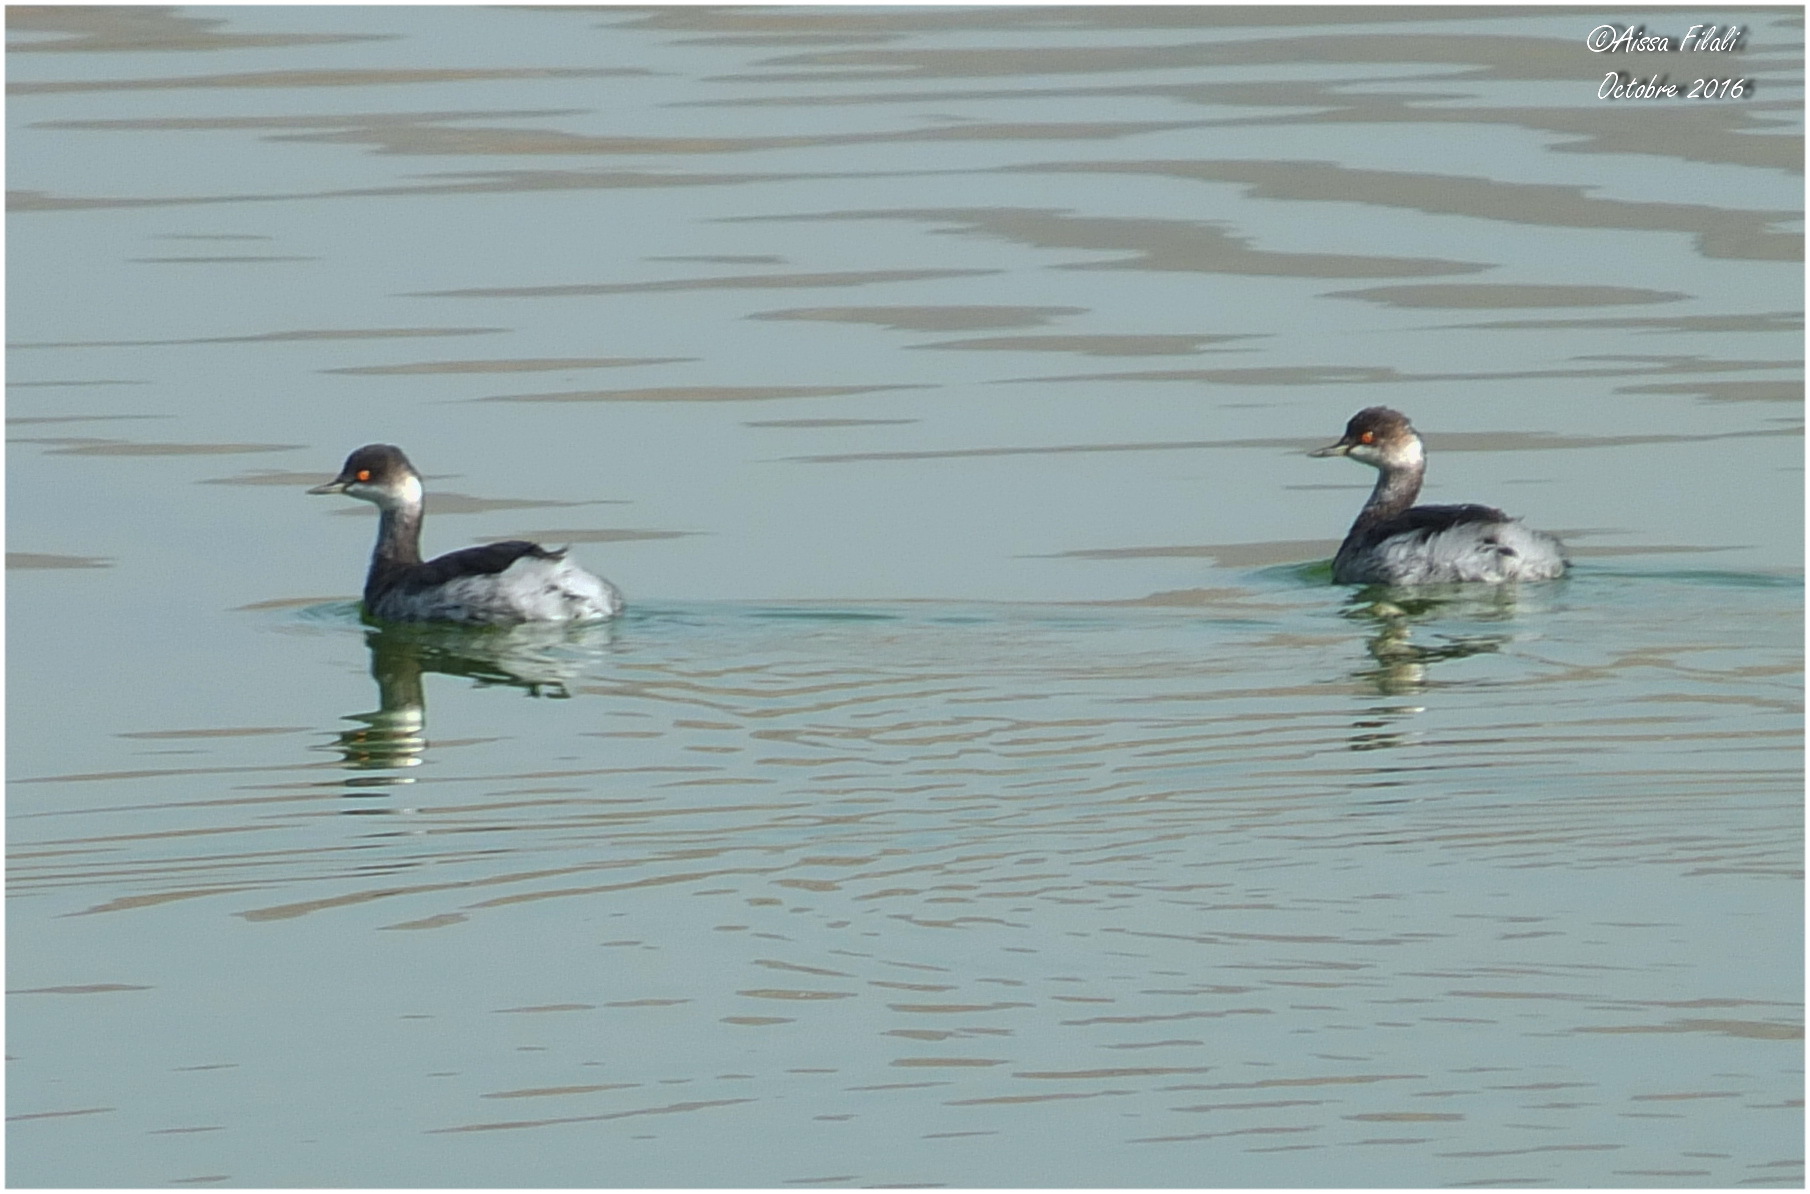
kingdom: Animalia
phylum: Chordata
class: Aves
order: Podicipediformes
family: Podicipedidae
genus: Podiceps
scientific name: Podiceps nigricollis
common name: Black-necked grebe
